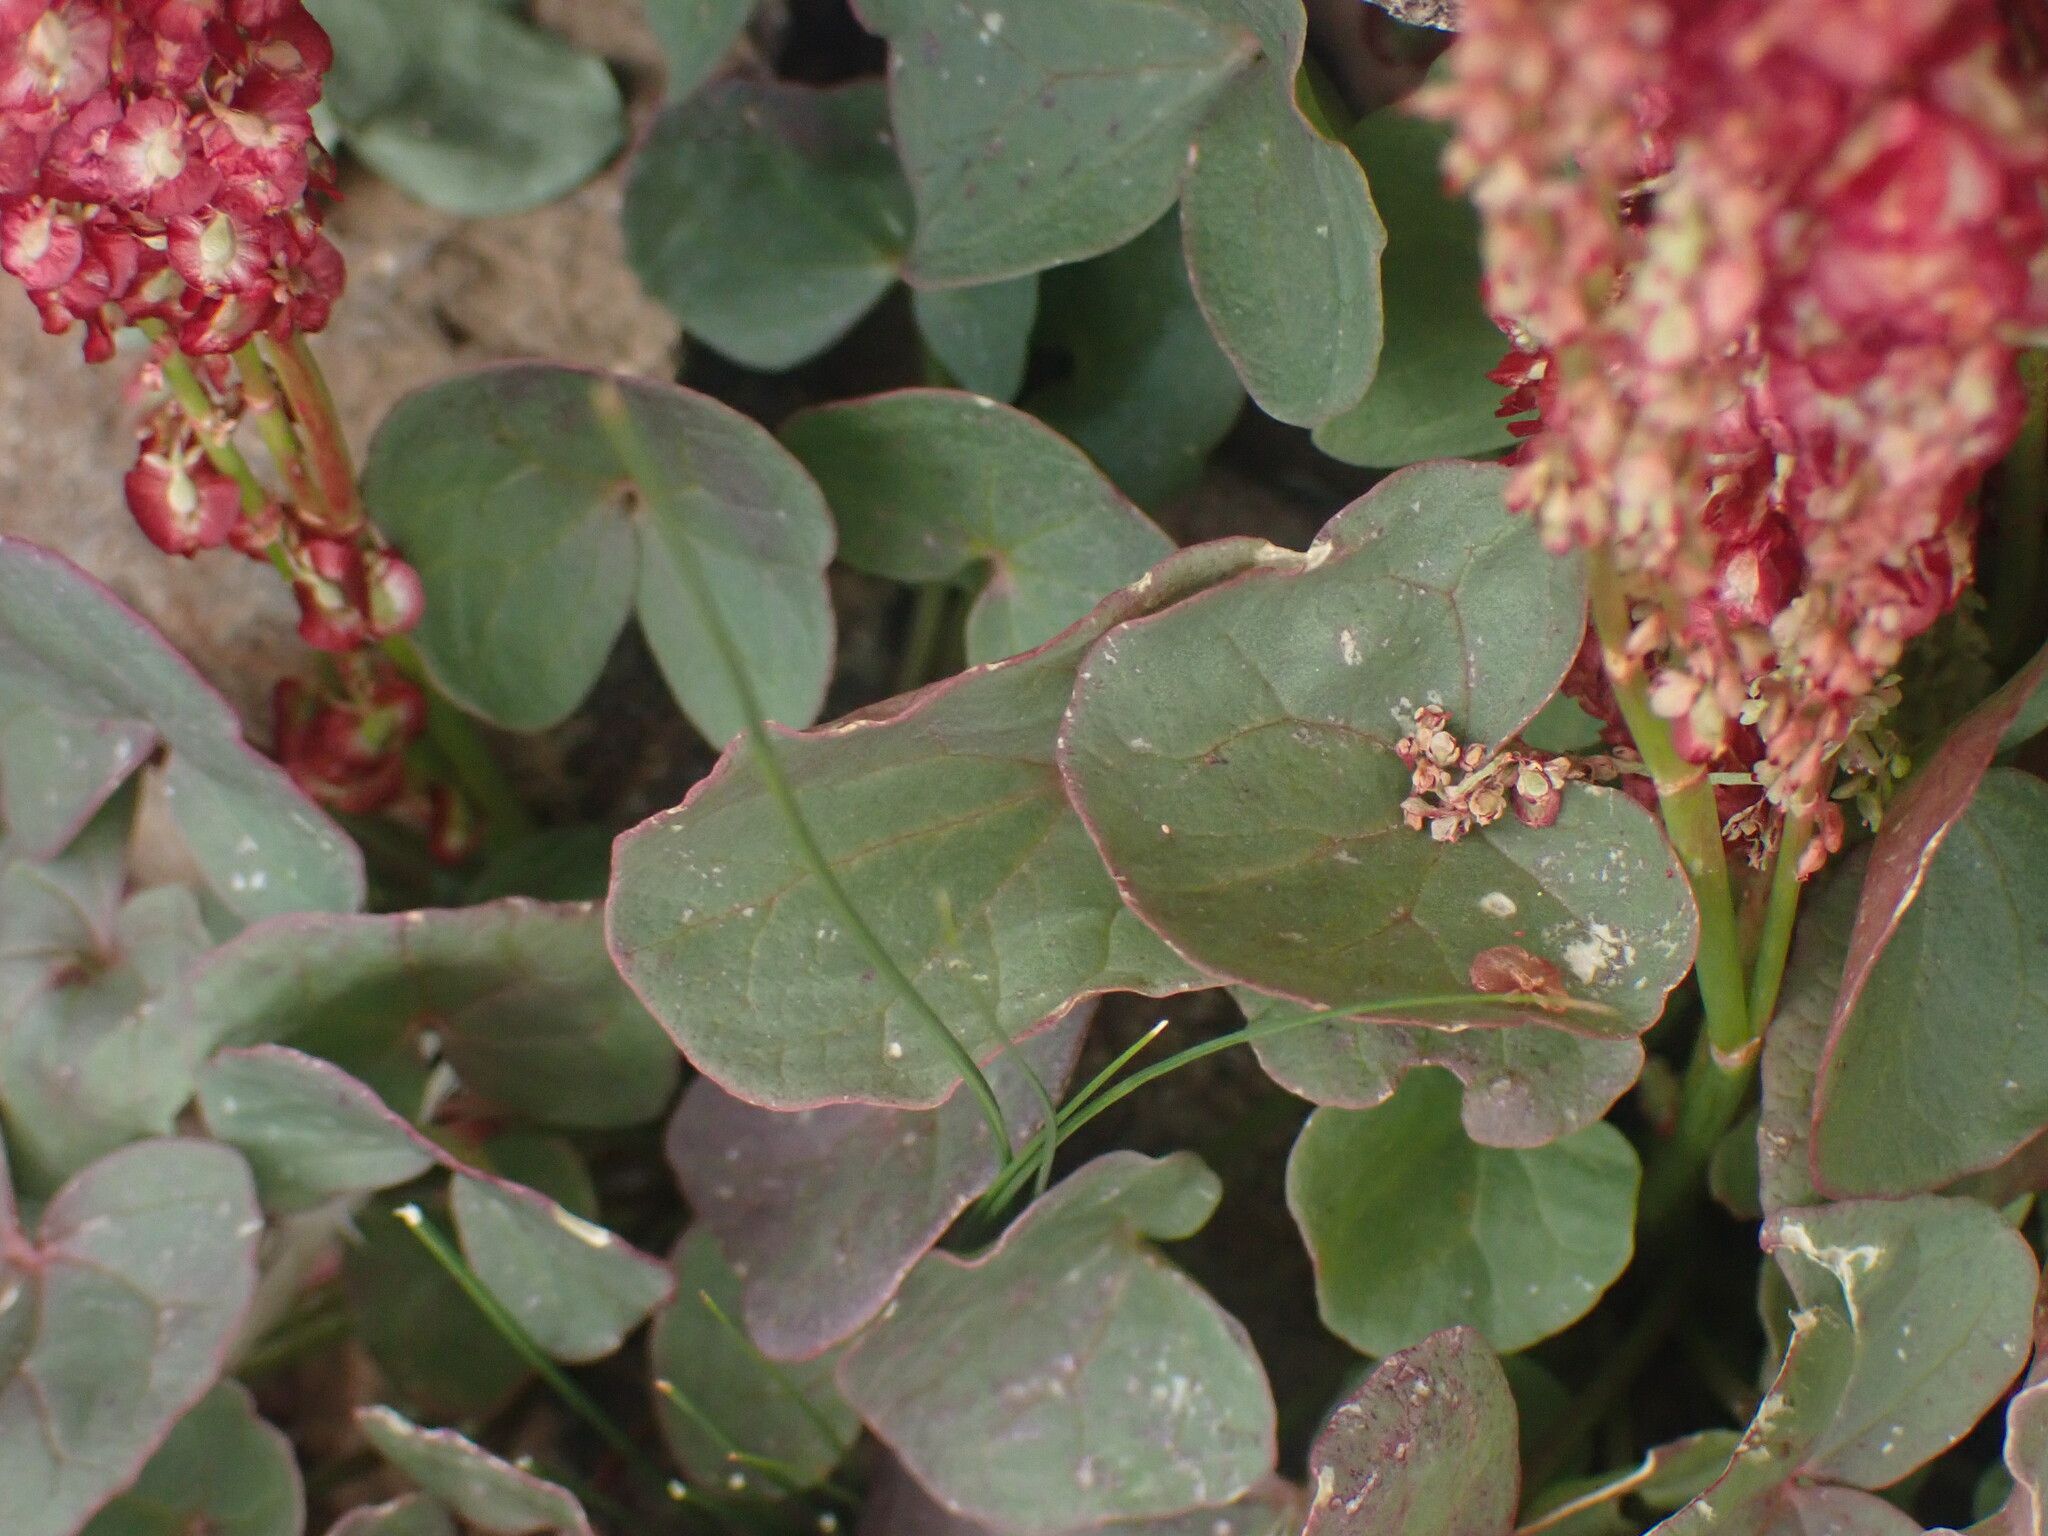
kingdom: Plantae
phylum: Tracheophyta
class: Magnoliopsida
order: Caryophyllales
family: Polygonaceae
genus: Oxyria
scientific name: Oxyria digyna
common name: Alpine mountain-sorrel
